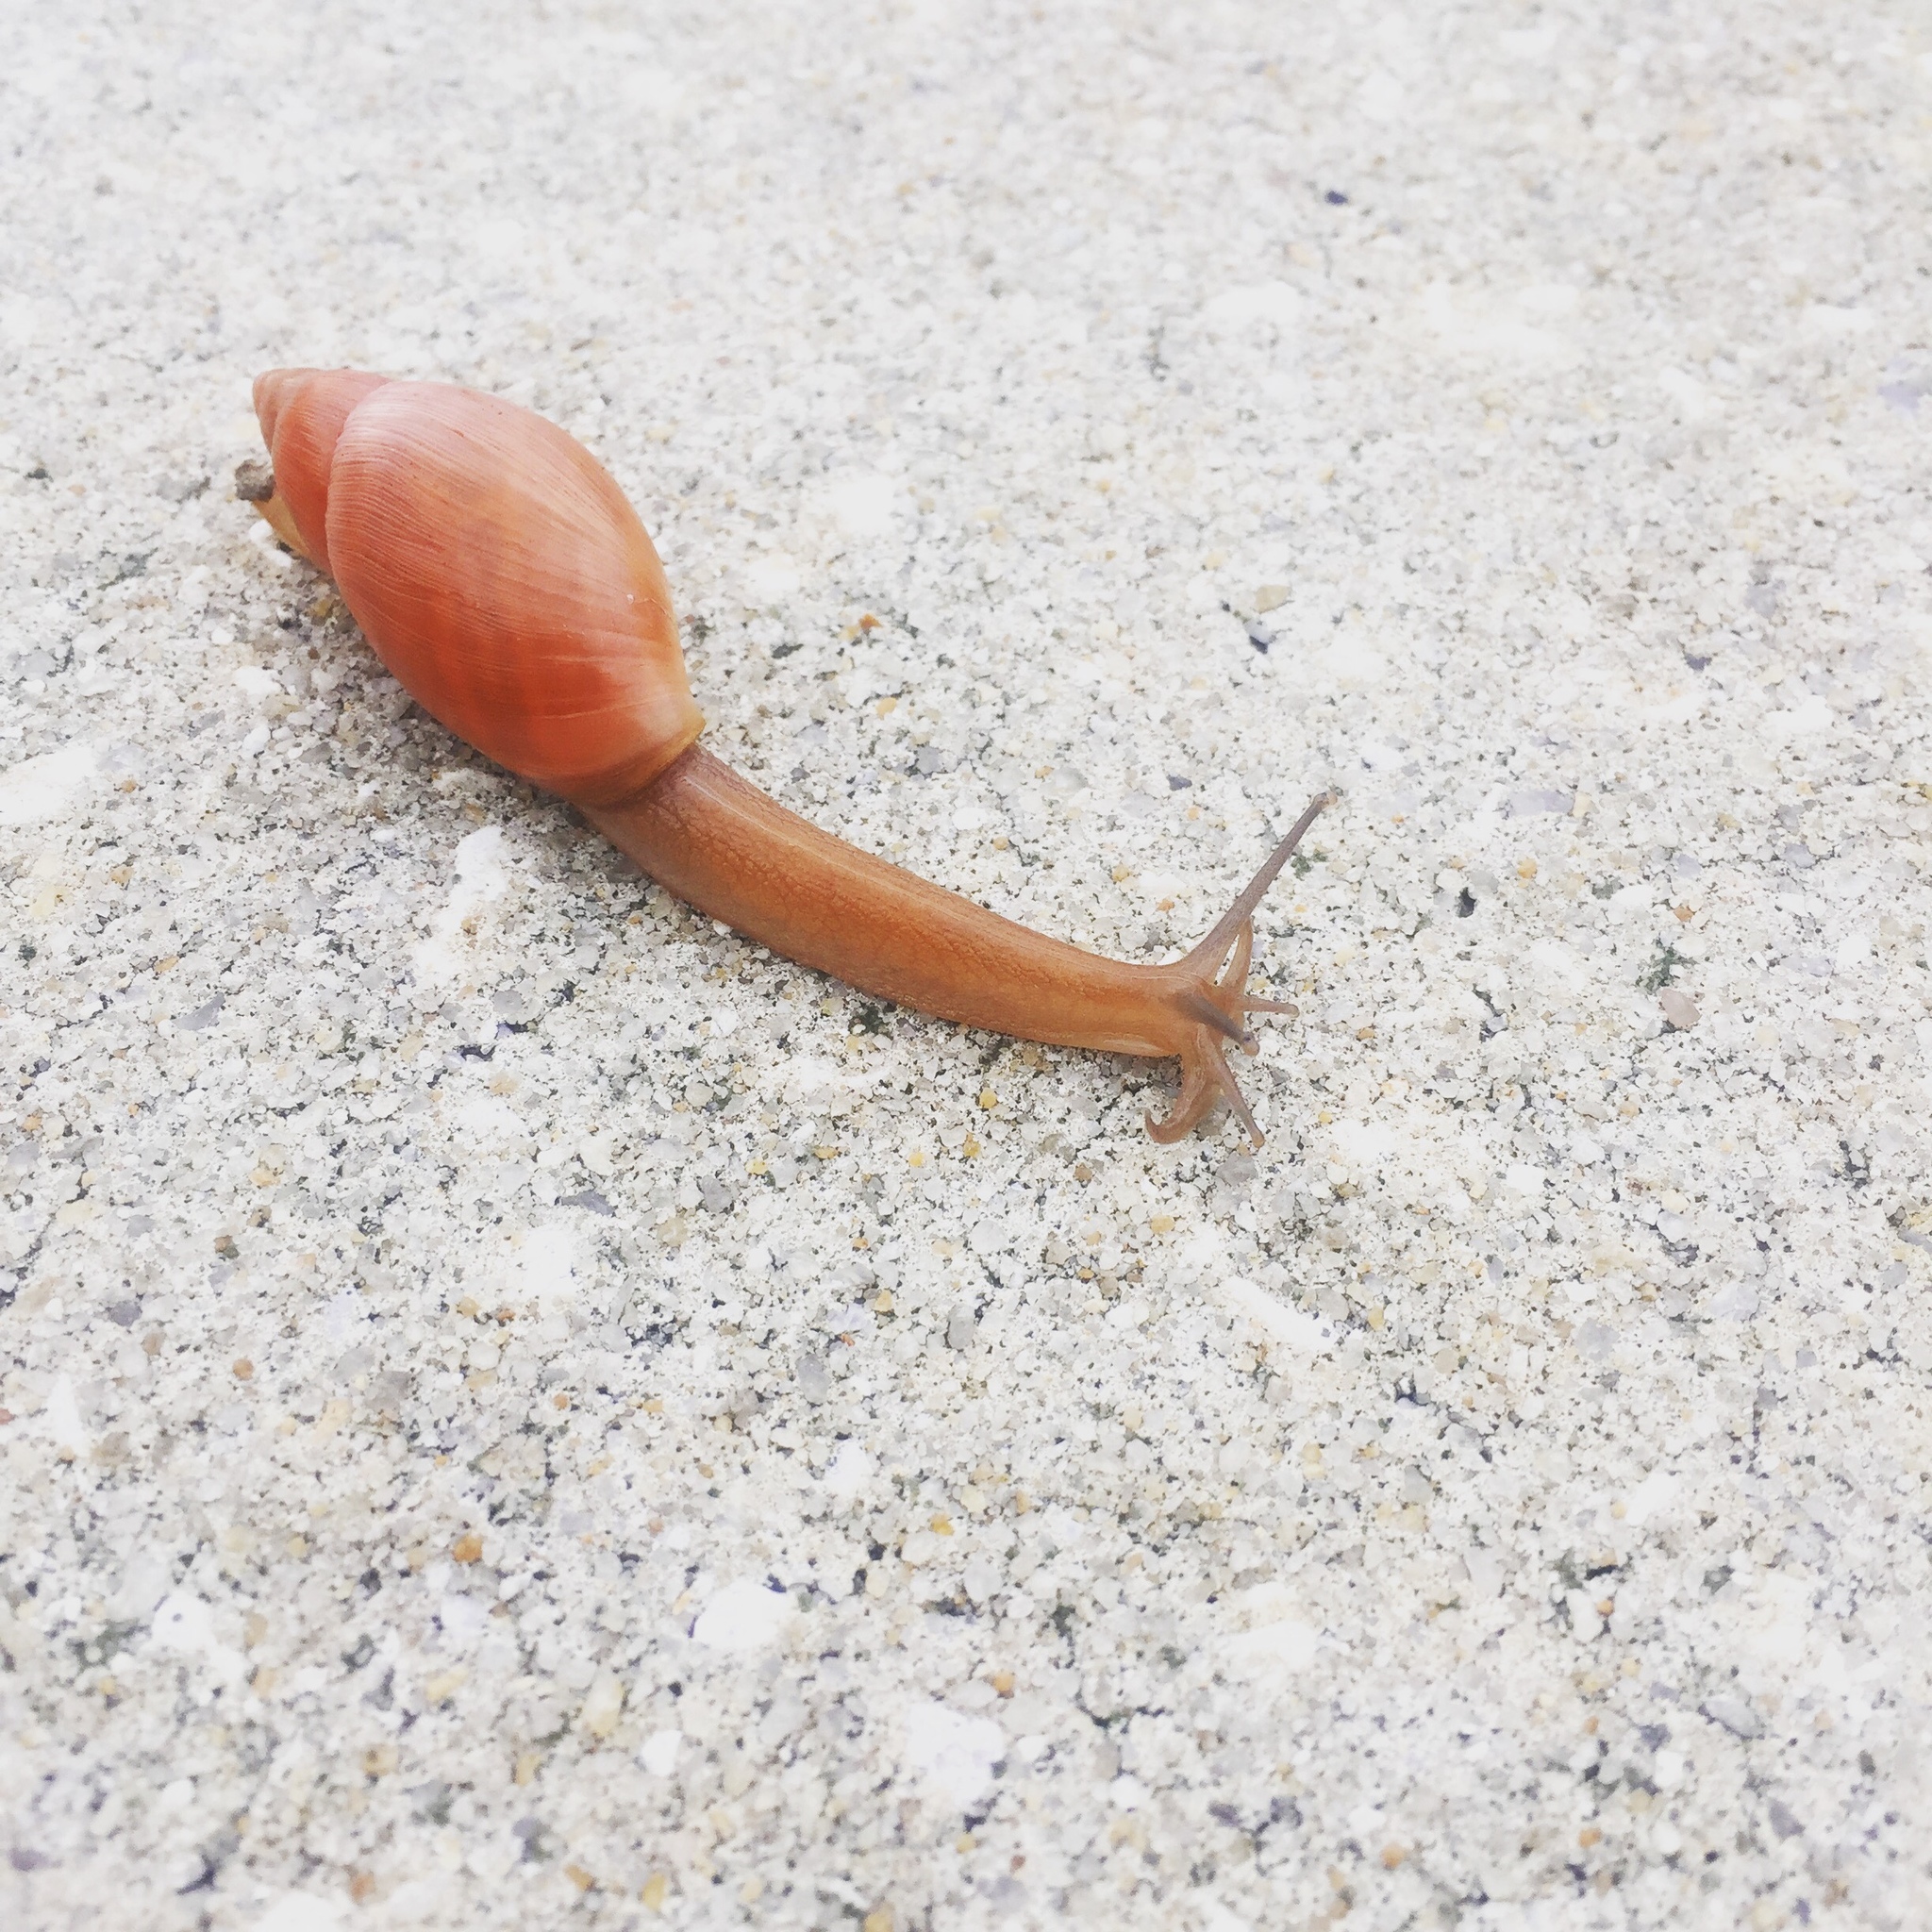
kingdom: Animalia
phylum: Mollusca
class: Gastropoda
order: Stylommatophora
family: Spiraxidae
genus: Euglandina
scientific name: Euglandina rosea
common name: Rosy wolfsnail
